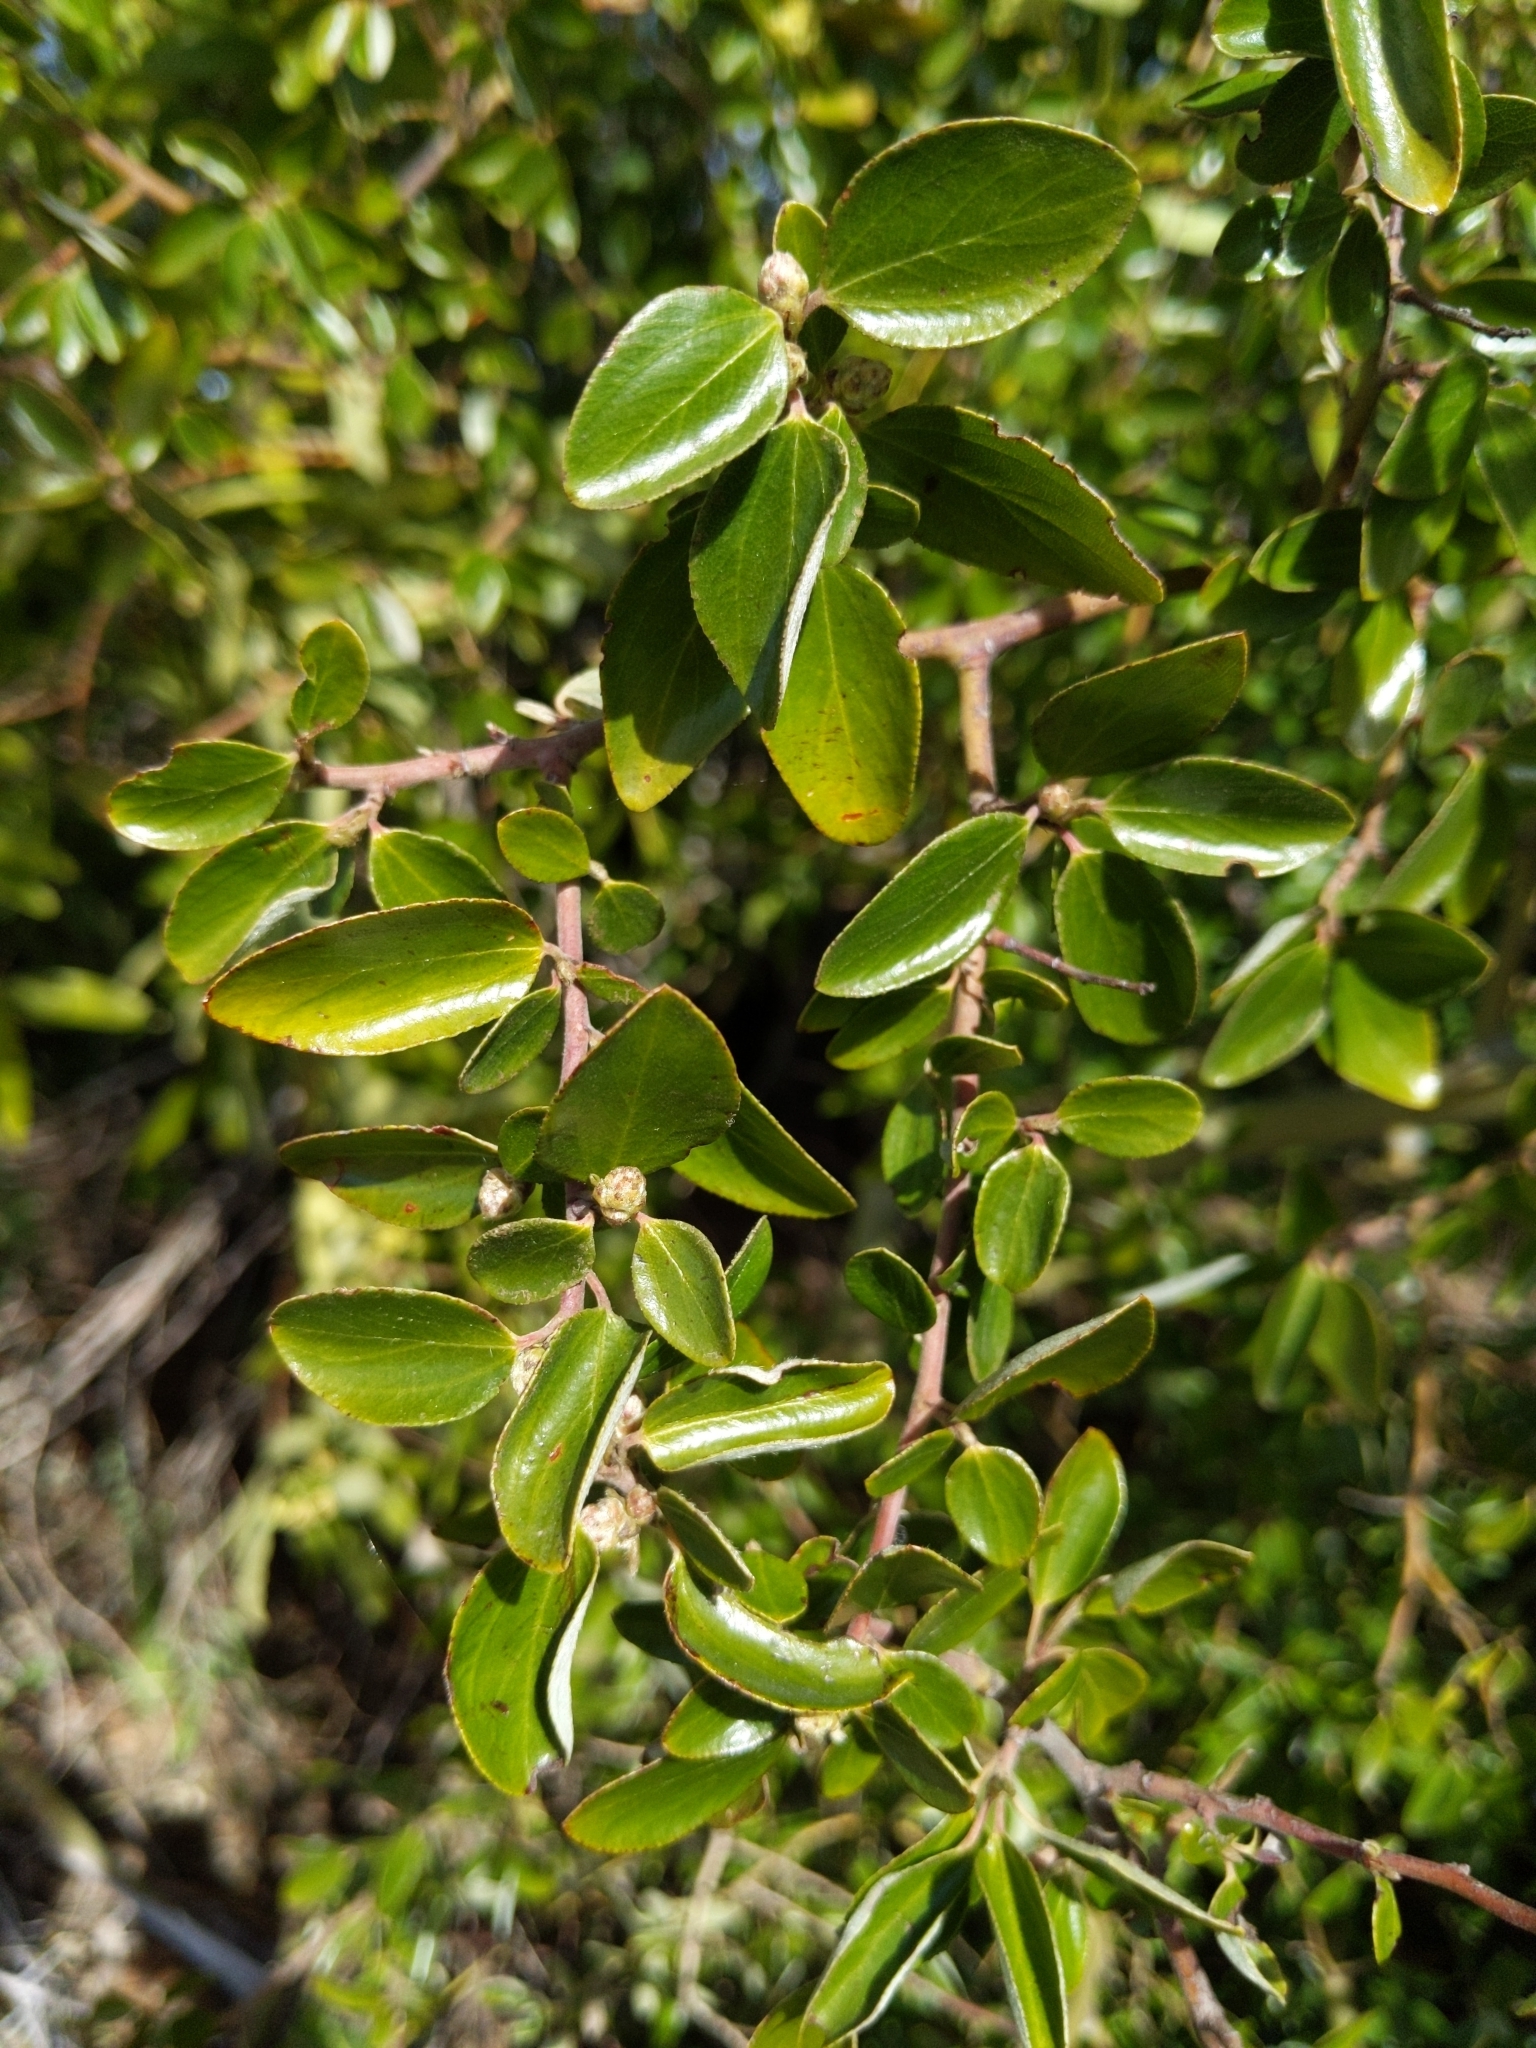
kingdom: Plantae
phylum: Tracheophyta
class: Magnoliopsida
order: Rosales
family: Rhamnaceae
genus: Ceanothus
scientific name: Ceanothus oliganthus
